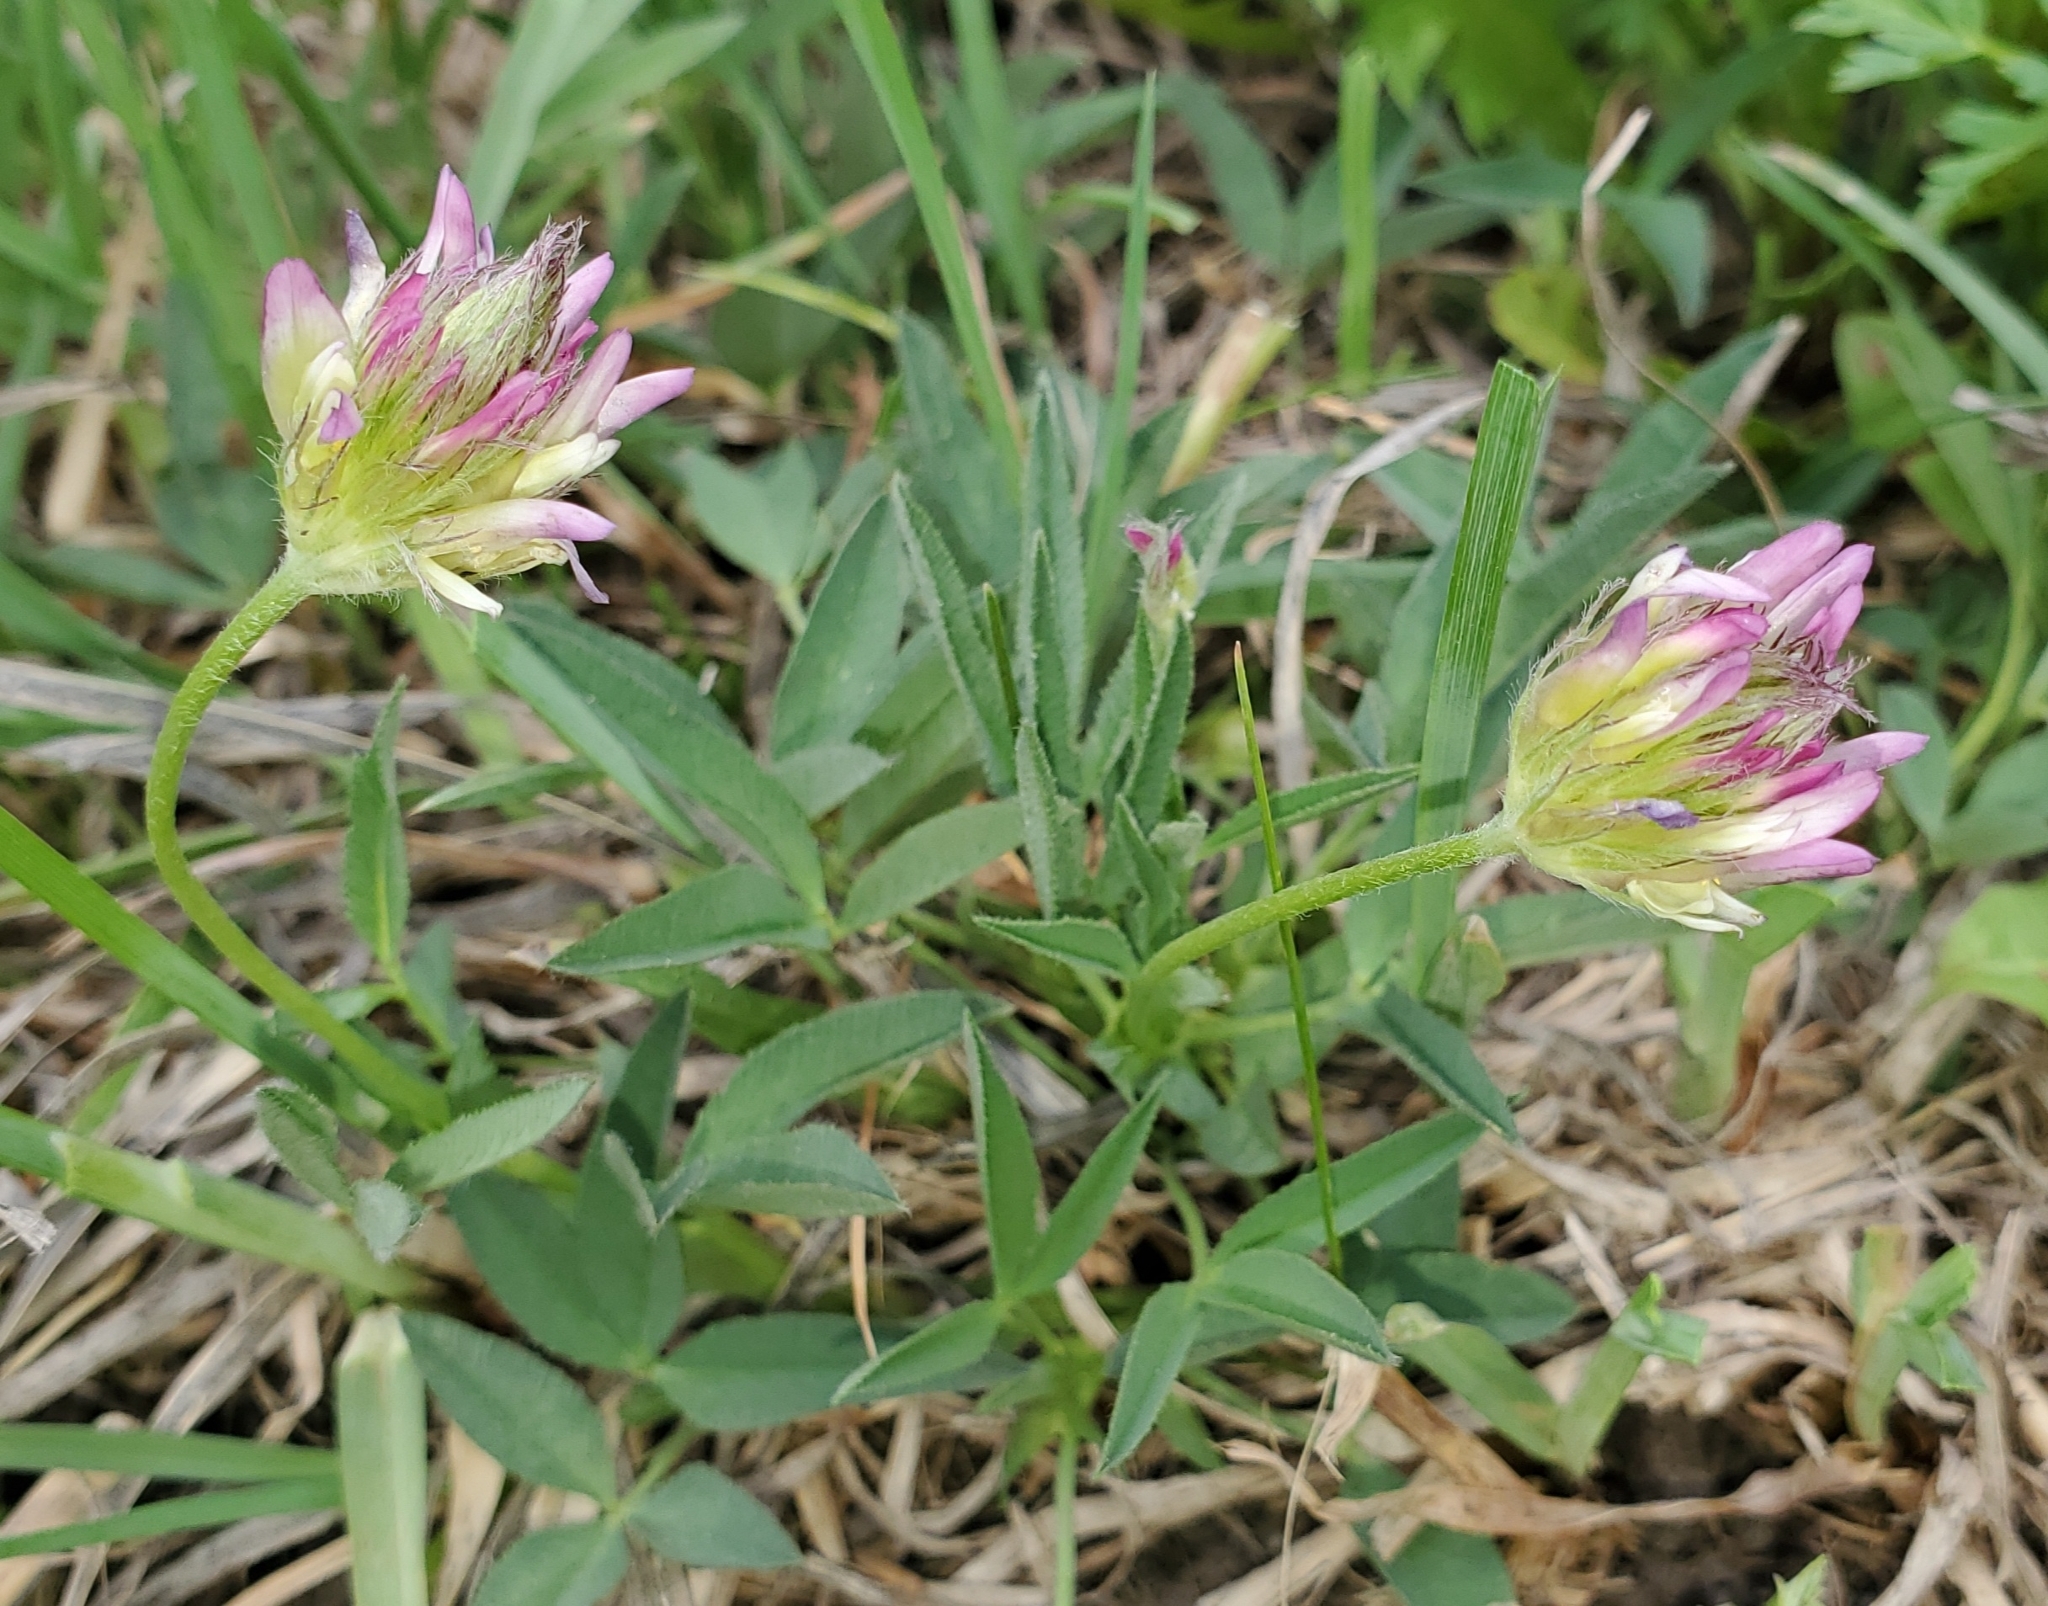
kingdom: Plantae
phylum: Tracheophyta
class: Magnoliopsida
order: Fabales
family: Fabaceae
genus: Trifolium
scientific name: Trifolium longipes
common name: Long-stalk clover
